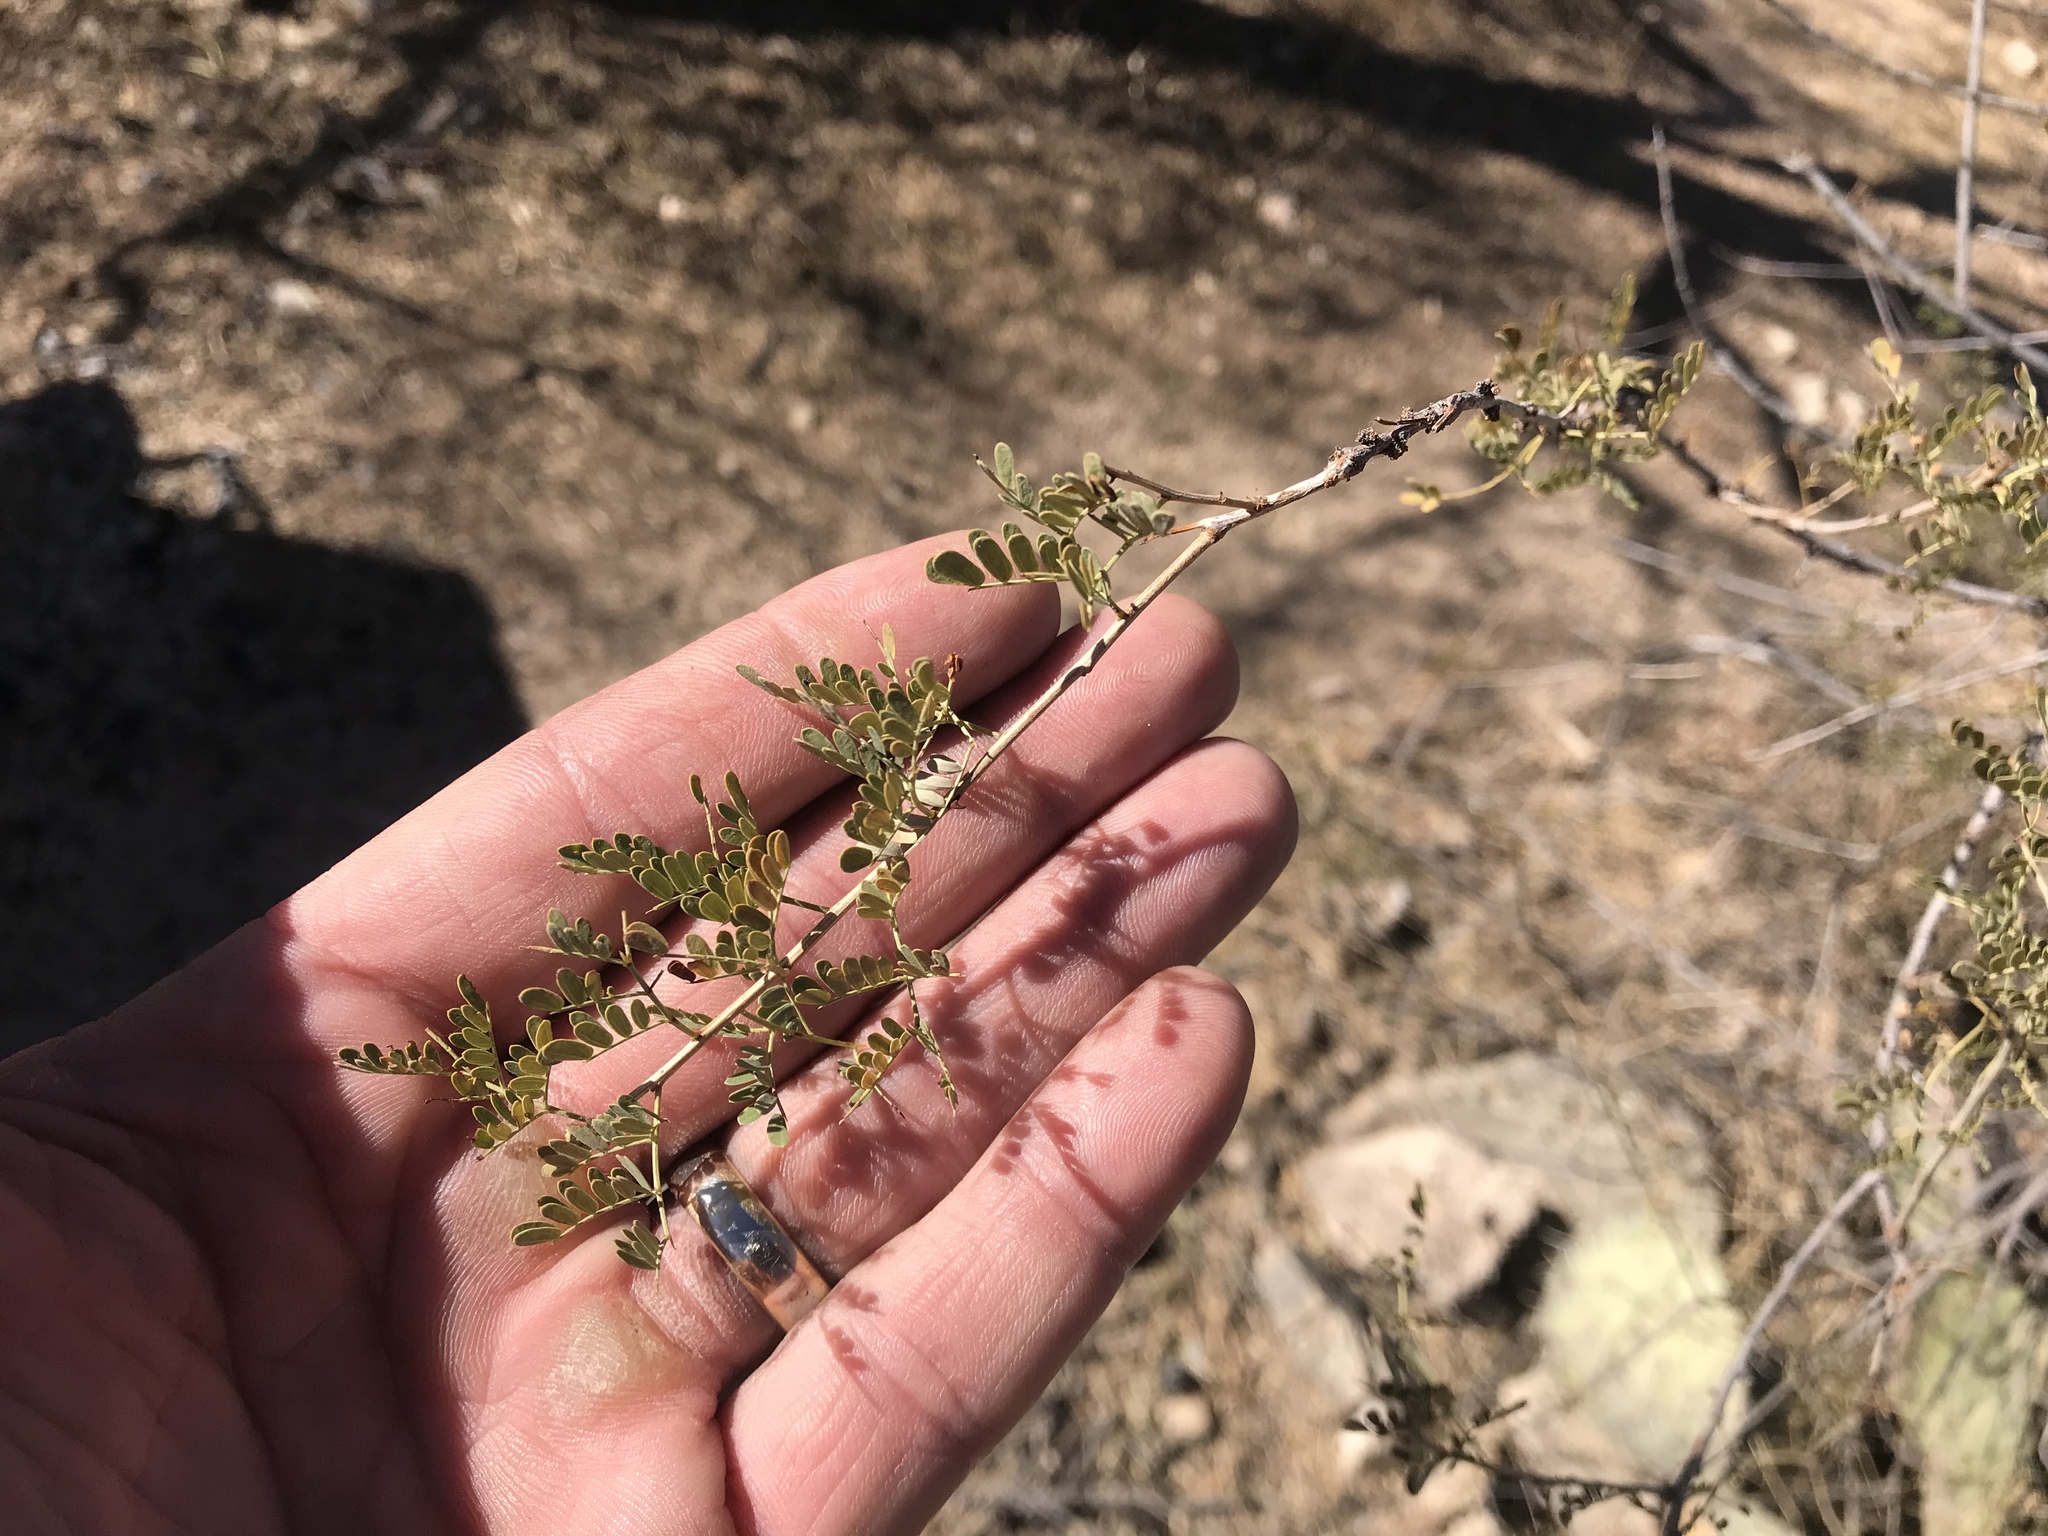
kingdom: Plantae
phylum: Tracheophyta
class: Magnoliopsida
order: Fabales
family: Fabaceae
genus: Senegalia
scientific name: Senegalia greggii
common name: Texas-mimosa
